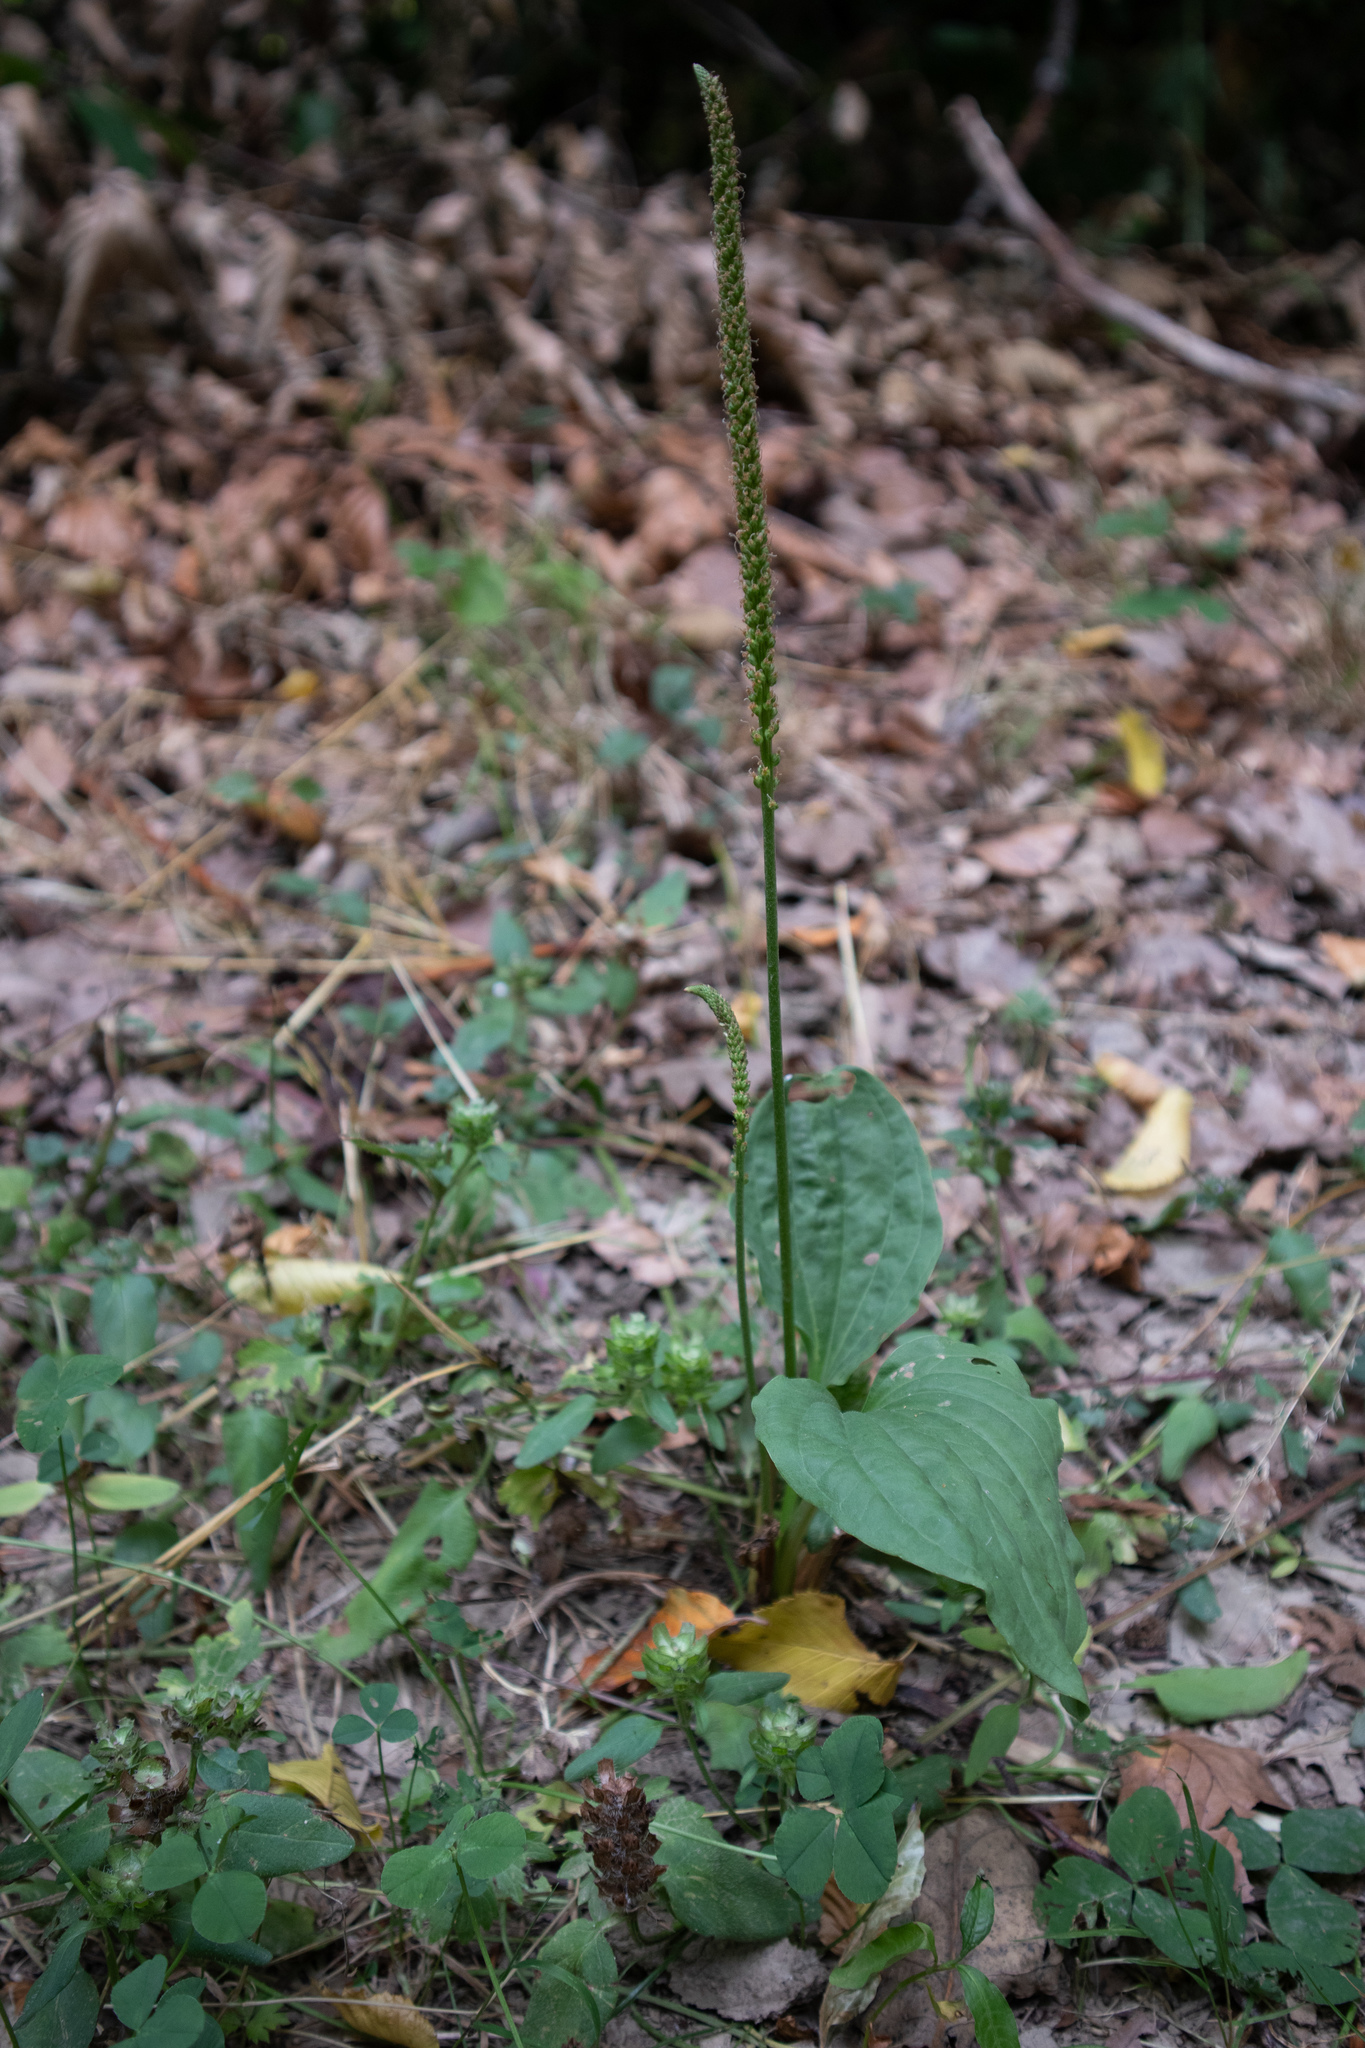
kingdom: Plantae
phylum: Tracheophyta
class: Magnoliopsida
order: Lamiales
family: Plantaginaceae
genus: Plantago
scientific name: Plantago major
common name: Common plantain
